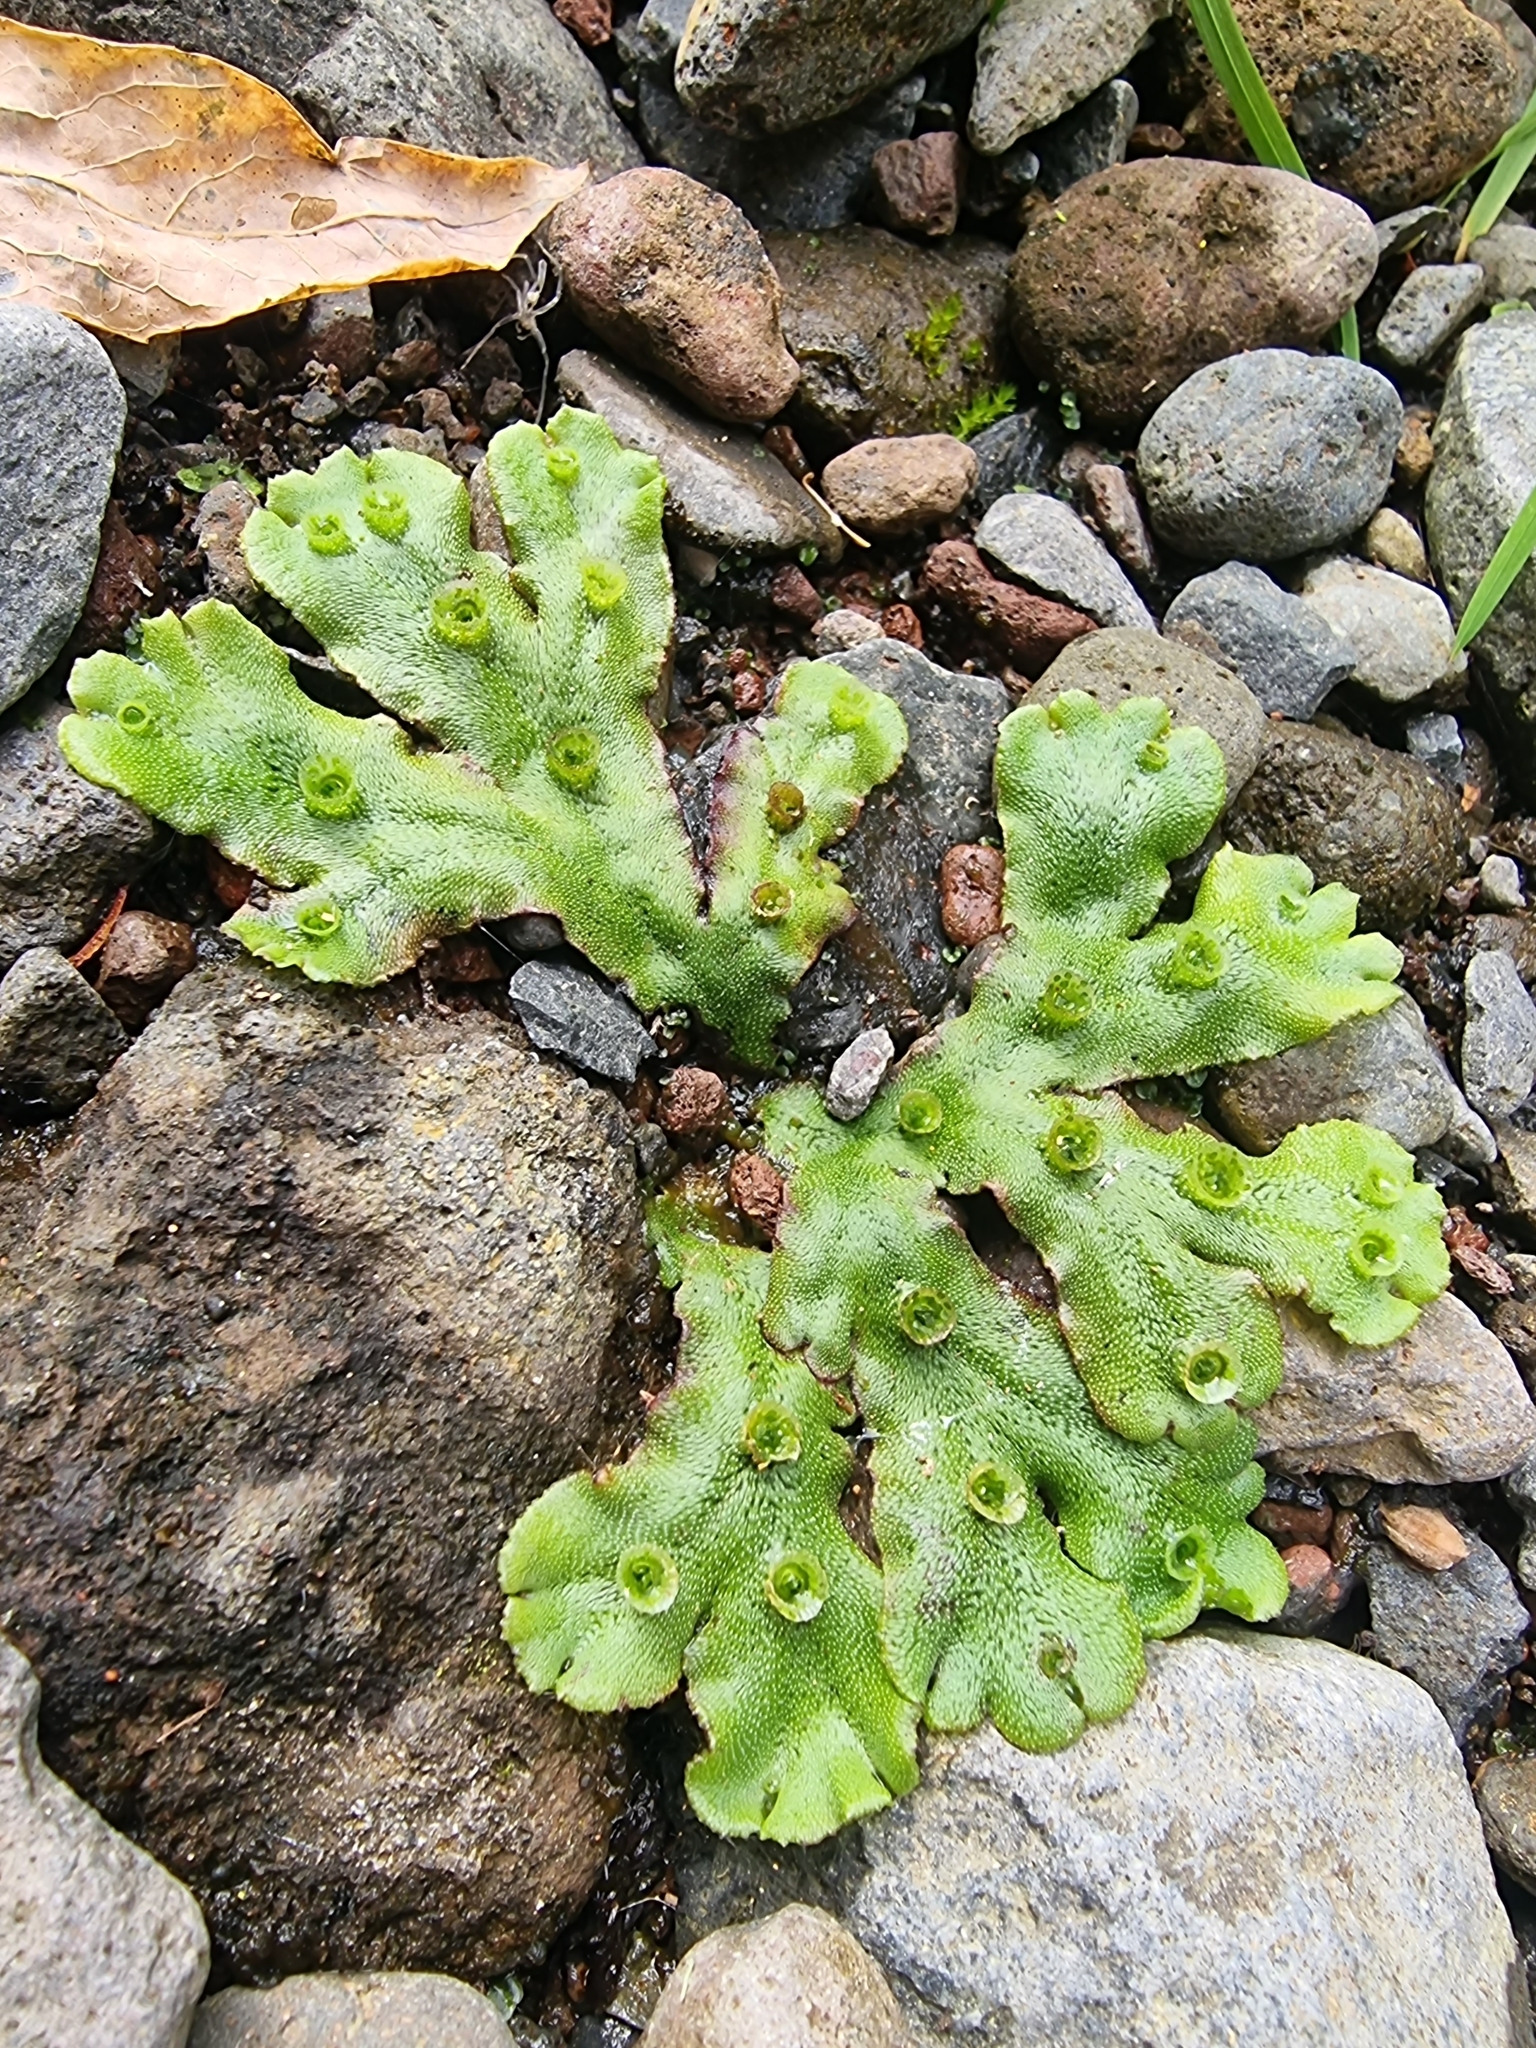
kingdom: Plantae
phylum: Marchantiophyta
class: Marchantiopsida
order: Marchantiales
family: Marchantiaceae
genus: Marchantia
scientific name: Marchantia polymorpha
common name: Common liverwort
